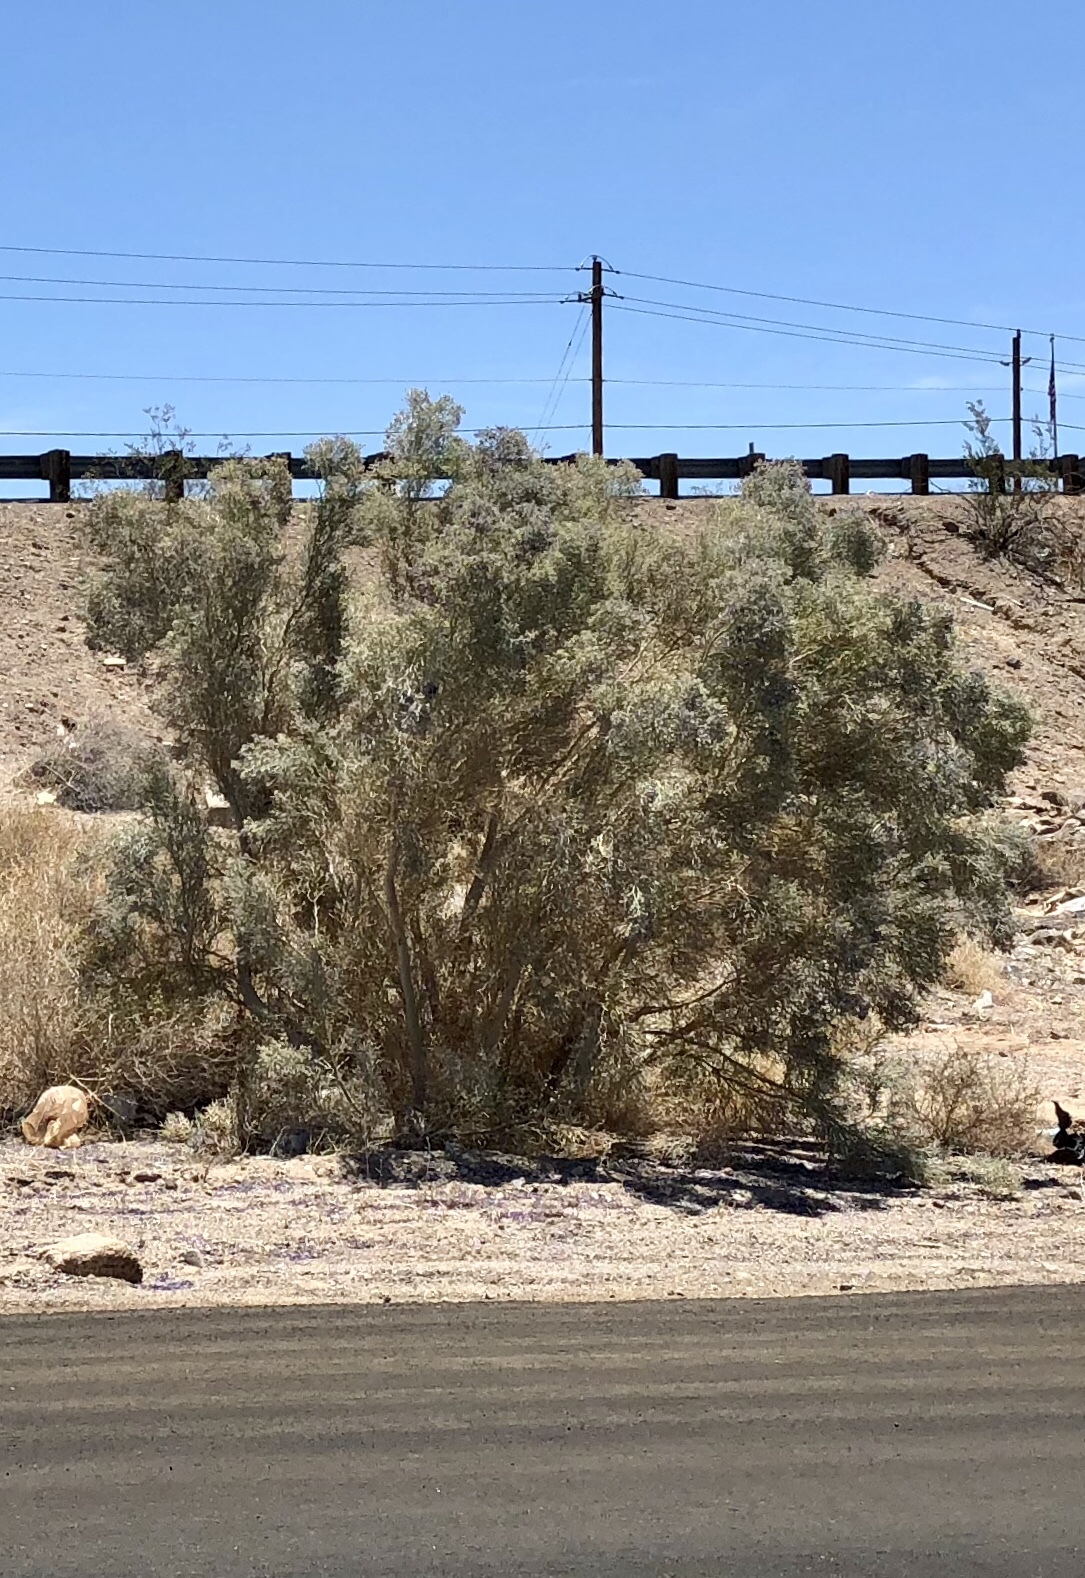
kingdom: Plantae
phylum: Tracheophyta
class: Magnoliopsida
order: Fabales
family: Fabaceae
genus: Psorothamnus
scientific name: Psorothamnus spinosus
